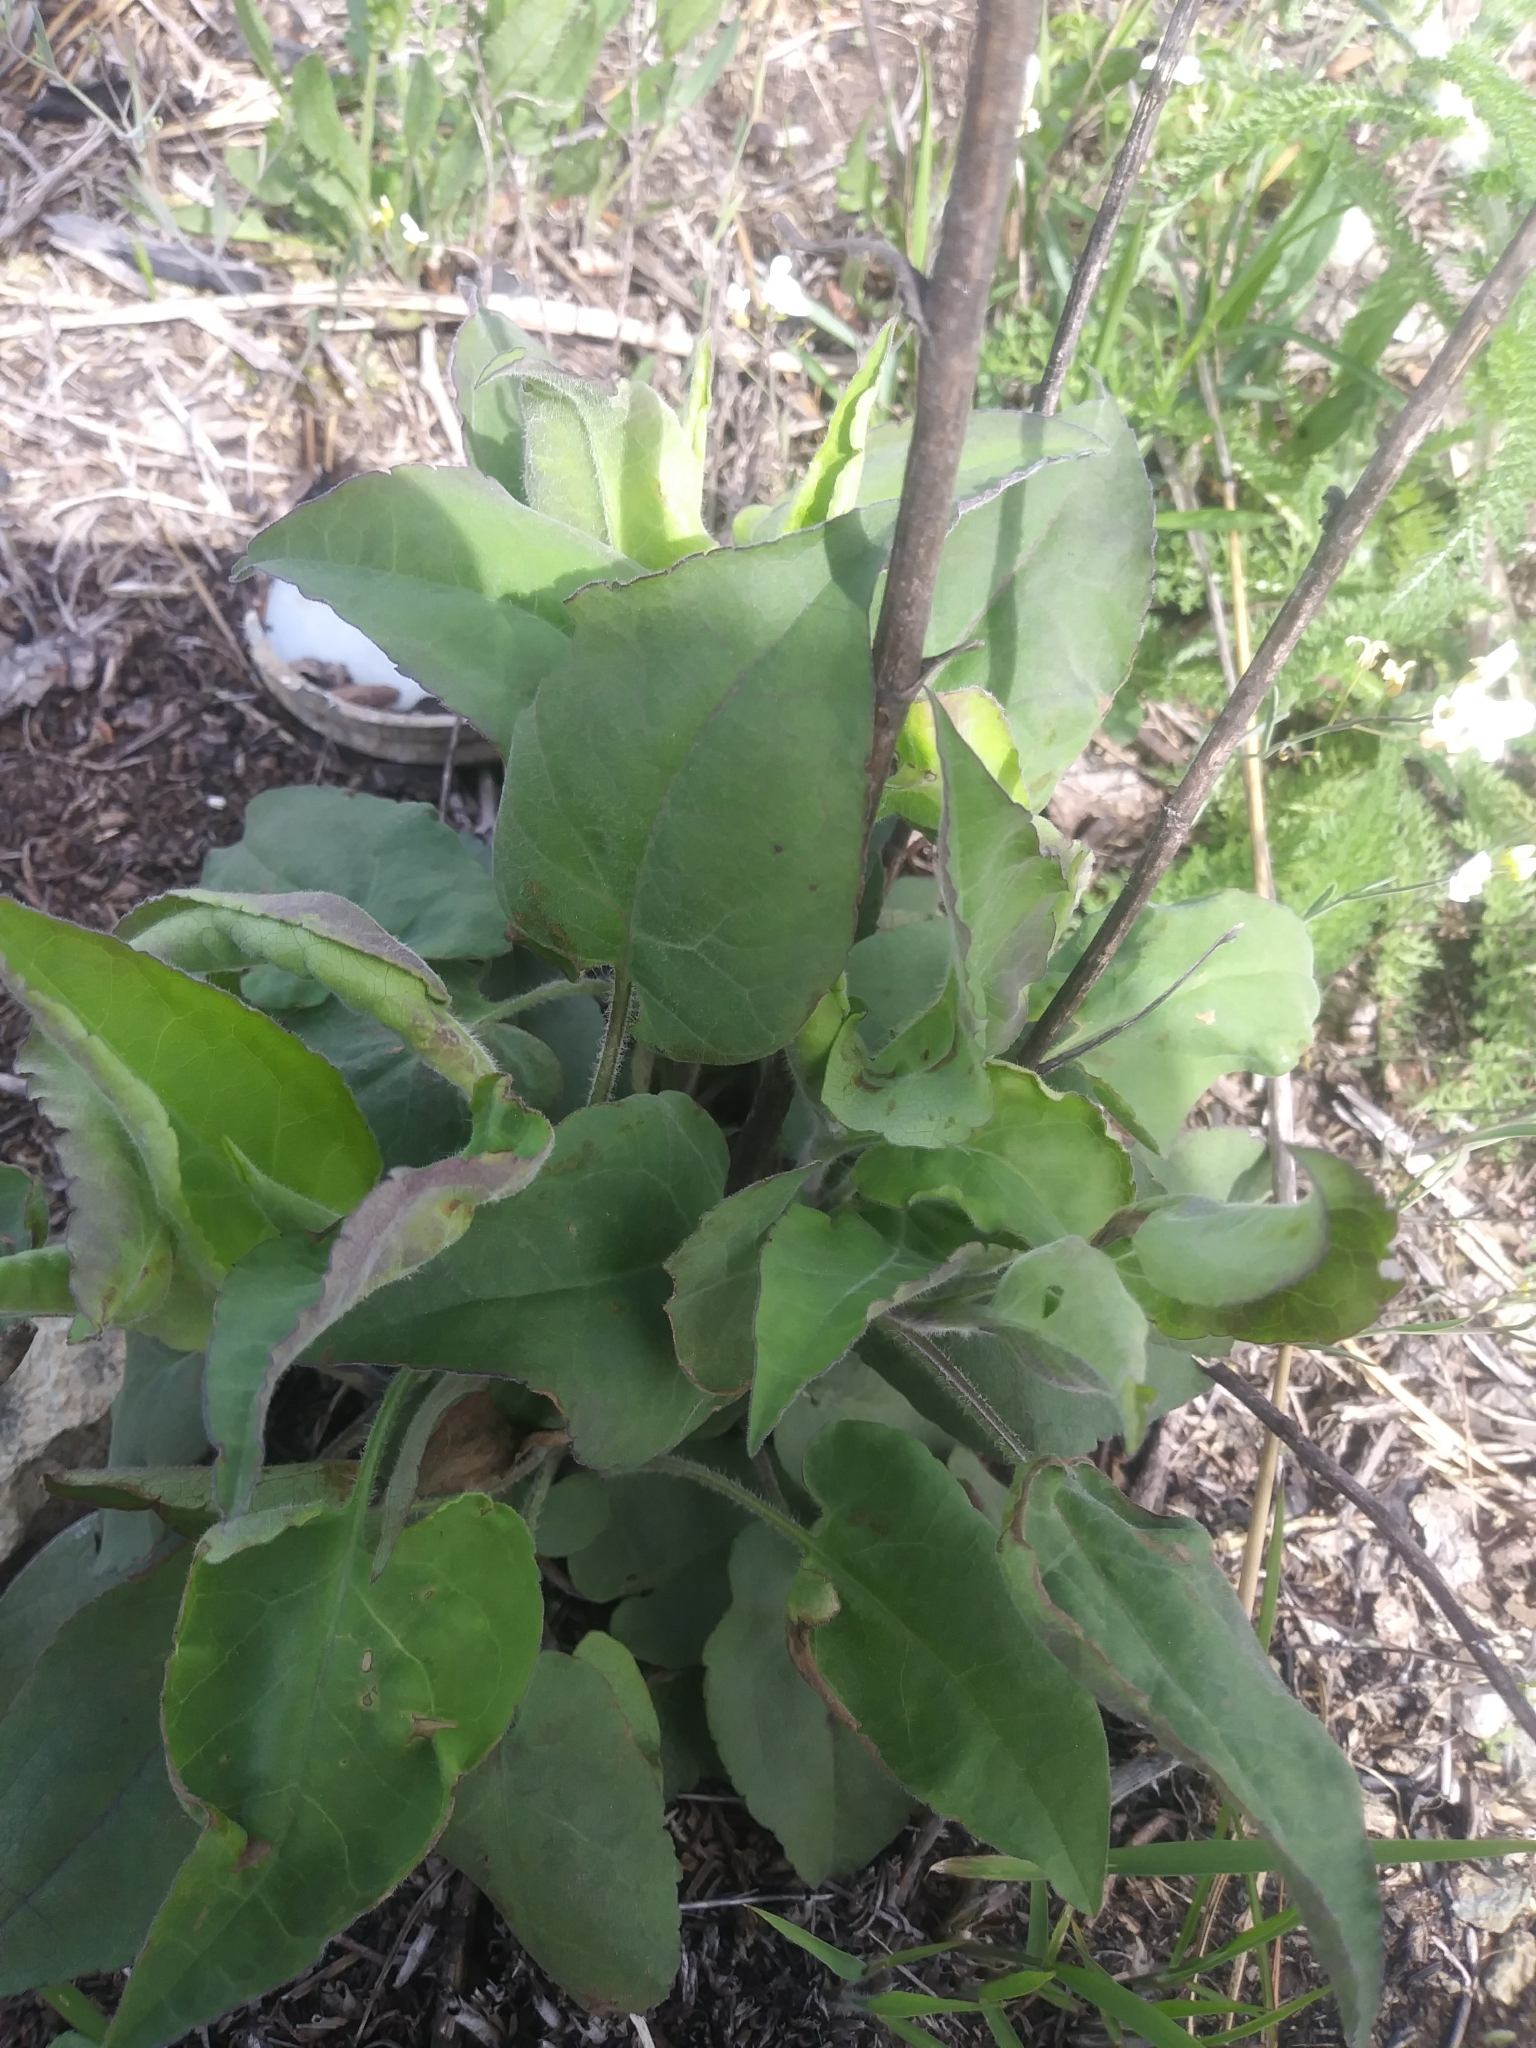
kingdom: Plantae
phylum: Tracheophyta
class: Magnoliopsida
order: Asterales
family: Asteraceae
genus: Symphyotrichum
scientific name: Symphyotrichum undulatum
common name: Clasping heart-leaf aster
